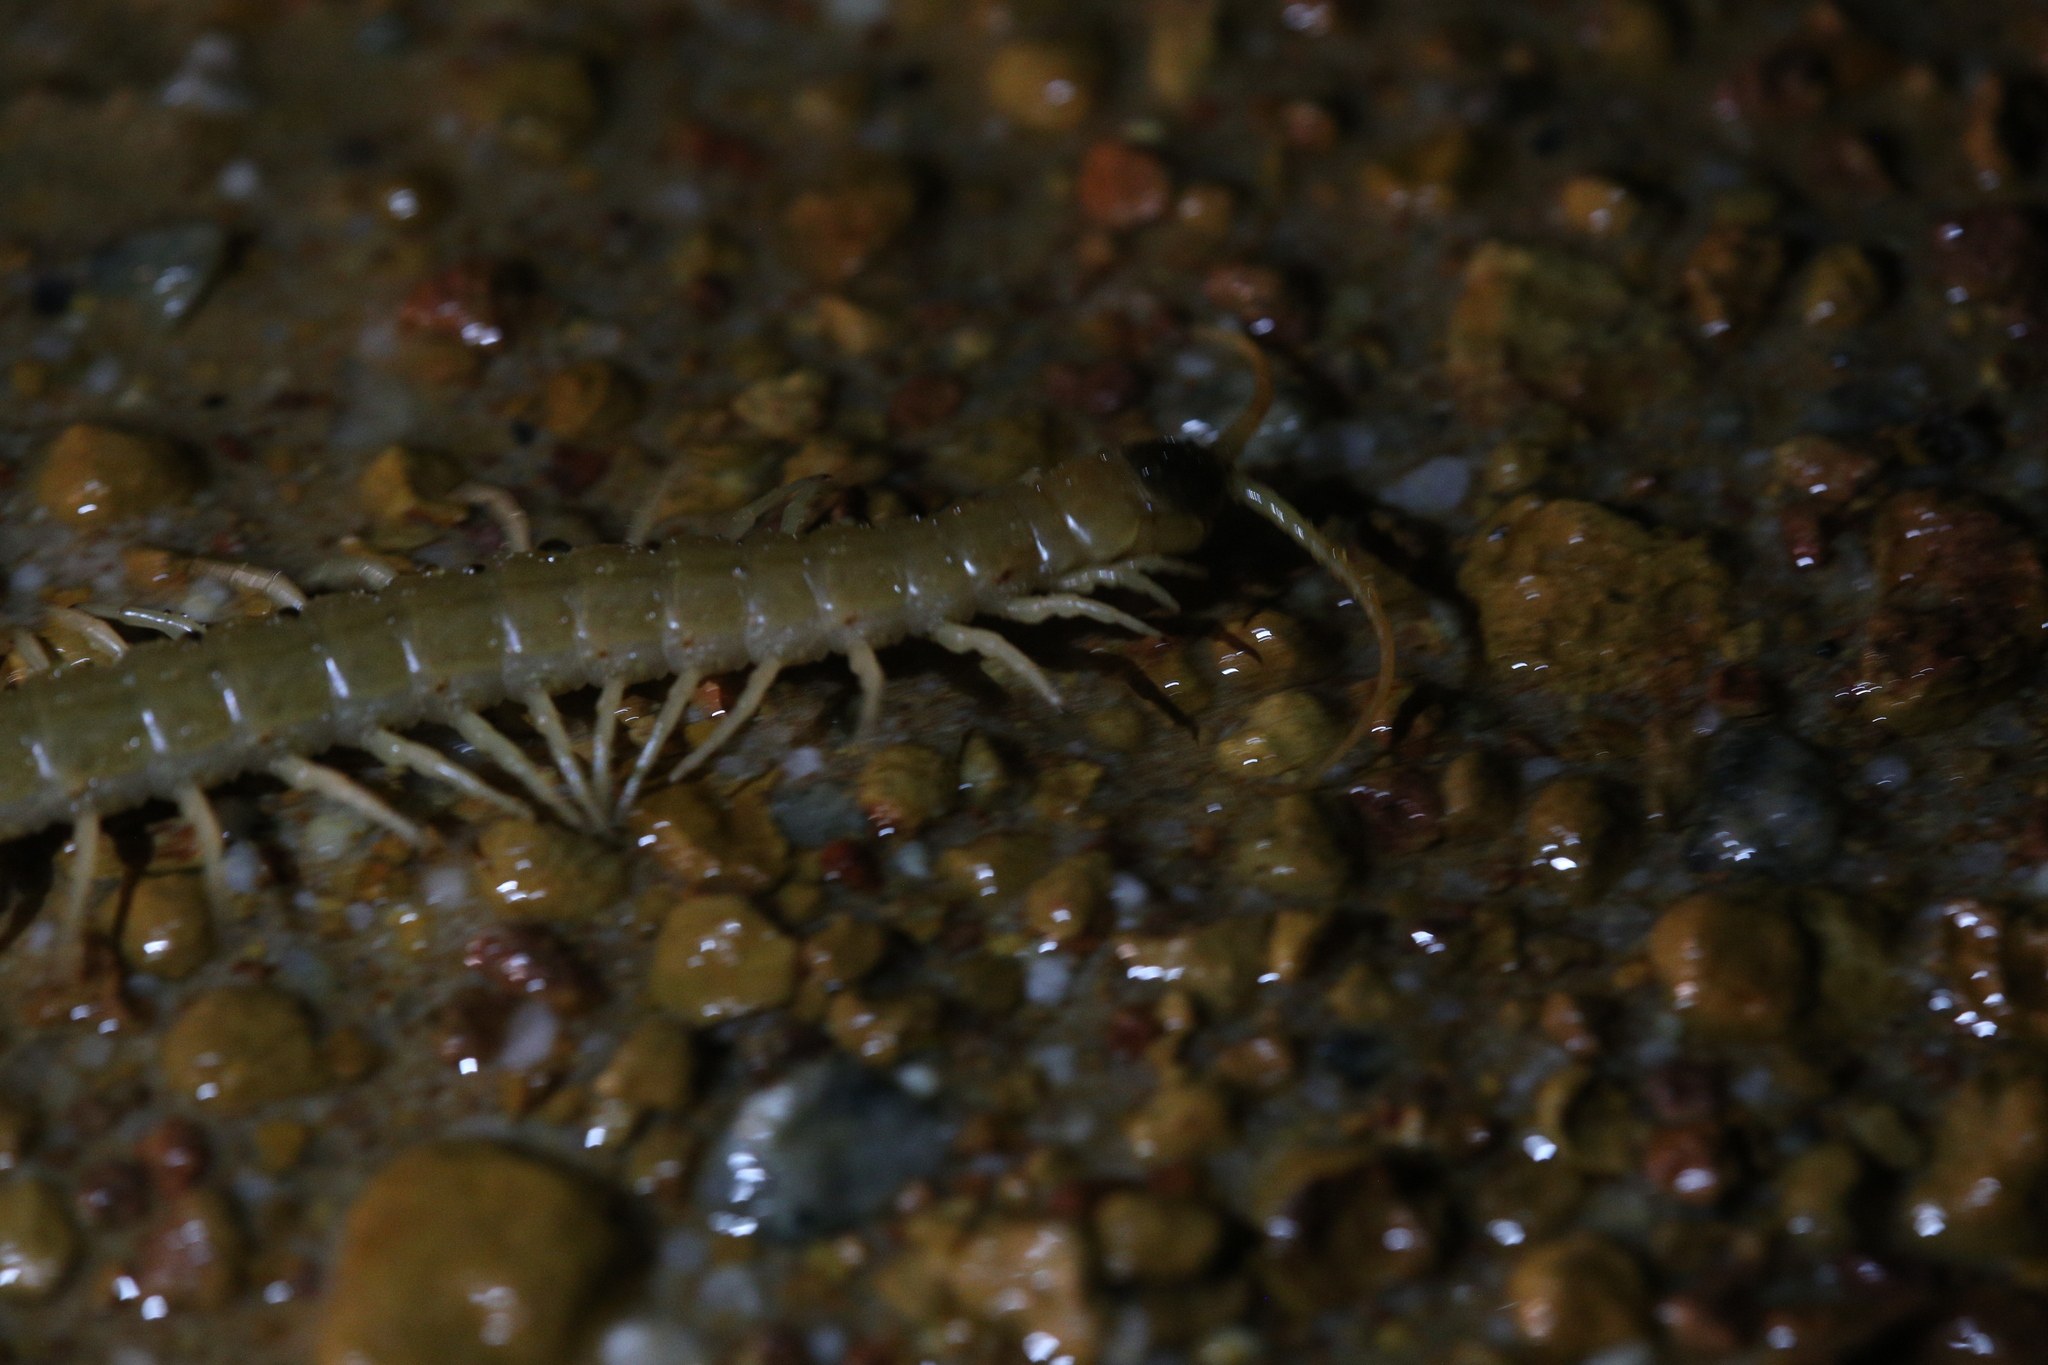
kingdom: Animalia
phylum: Arthropoda
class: Chilopoda
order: Scolopendromorpha
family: Scolopendridae
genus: Ethmostigmus
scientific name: Ethmostigmus rubripes
